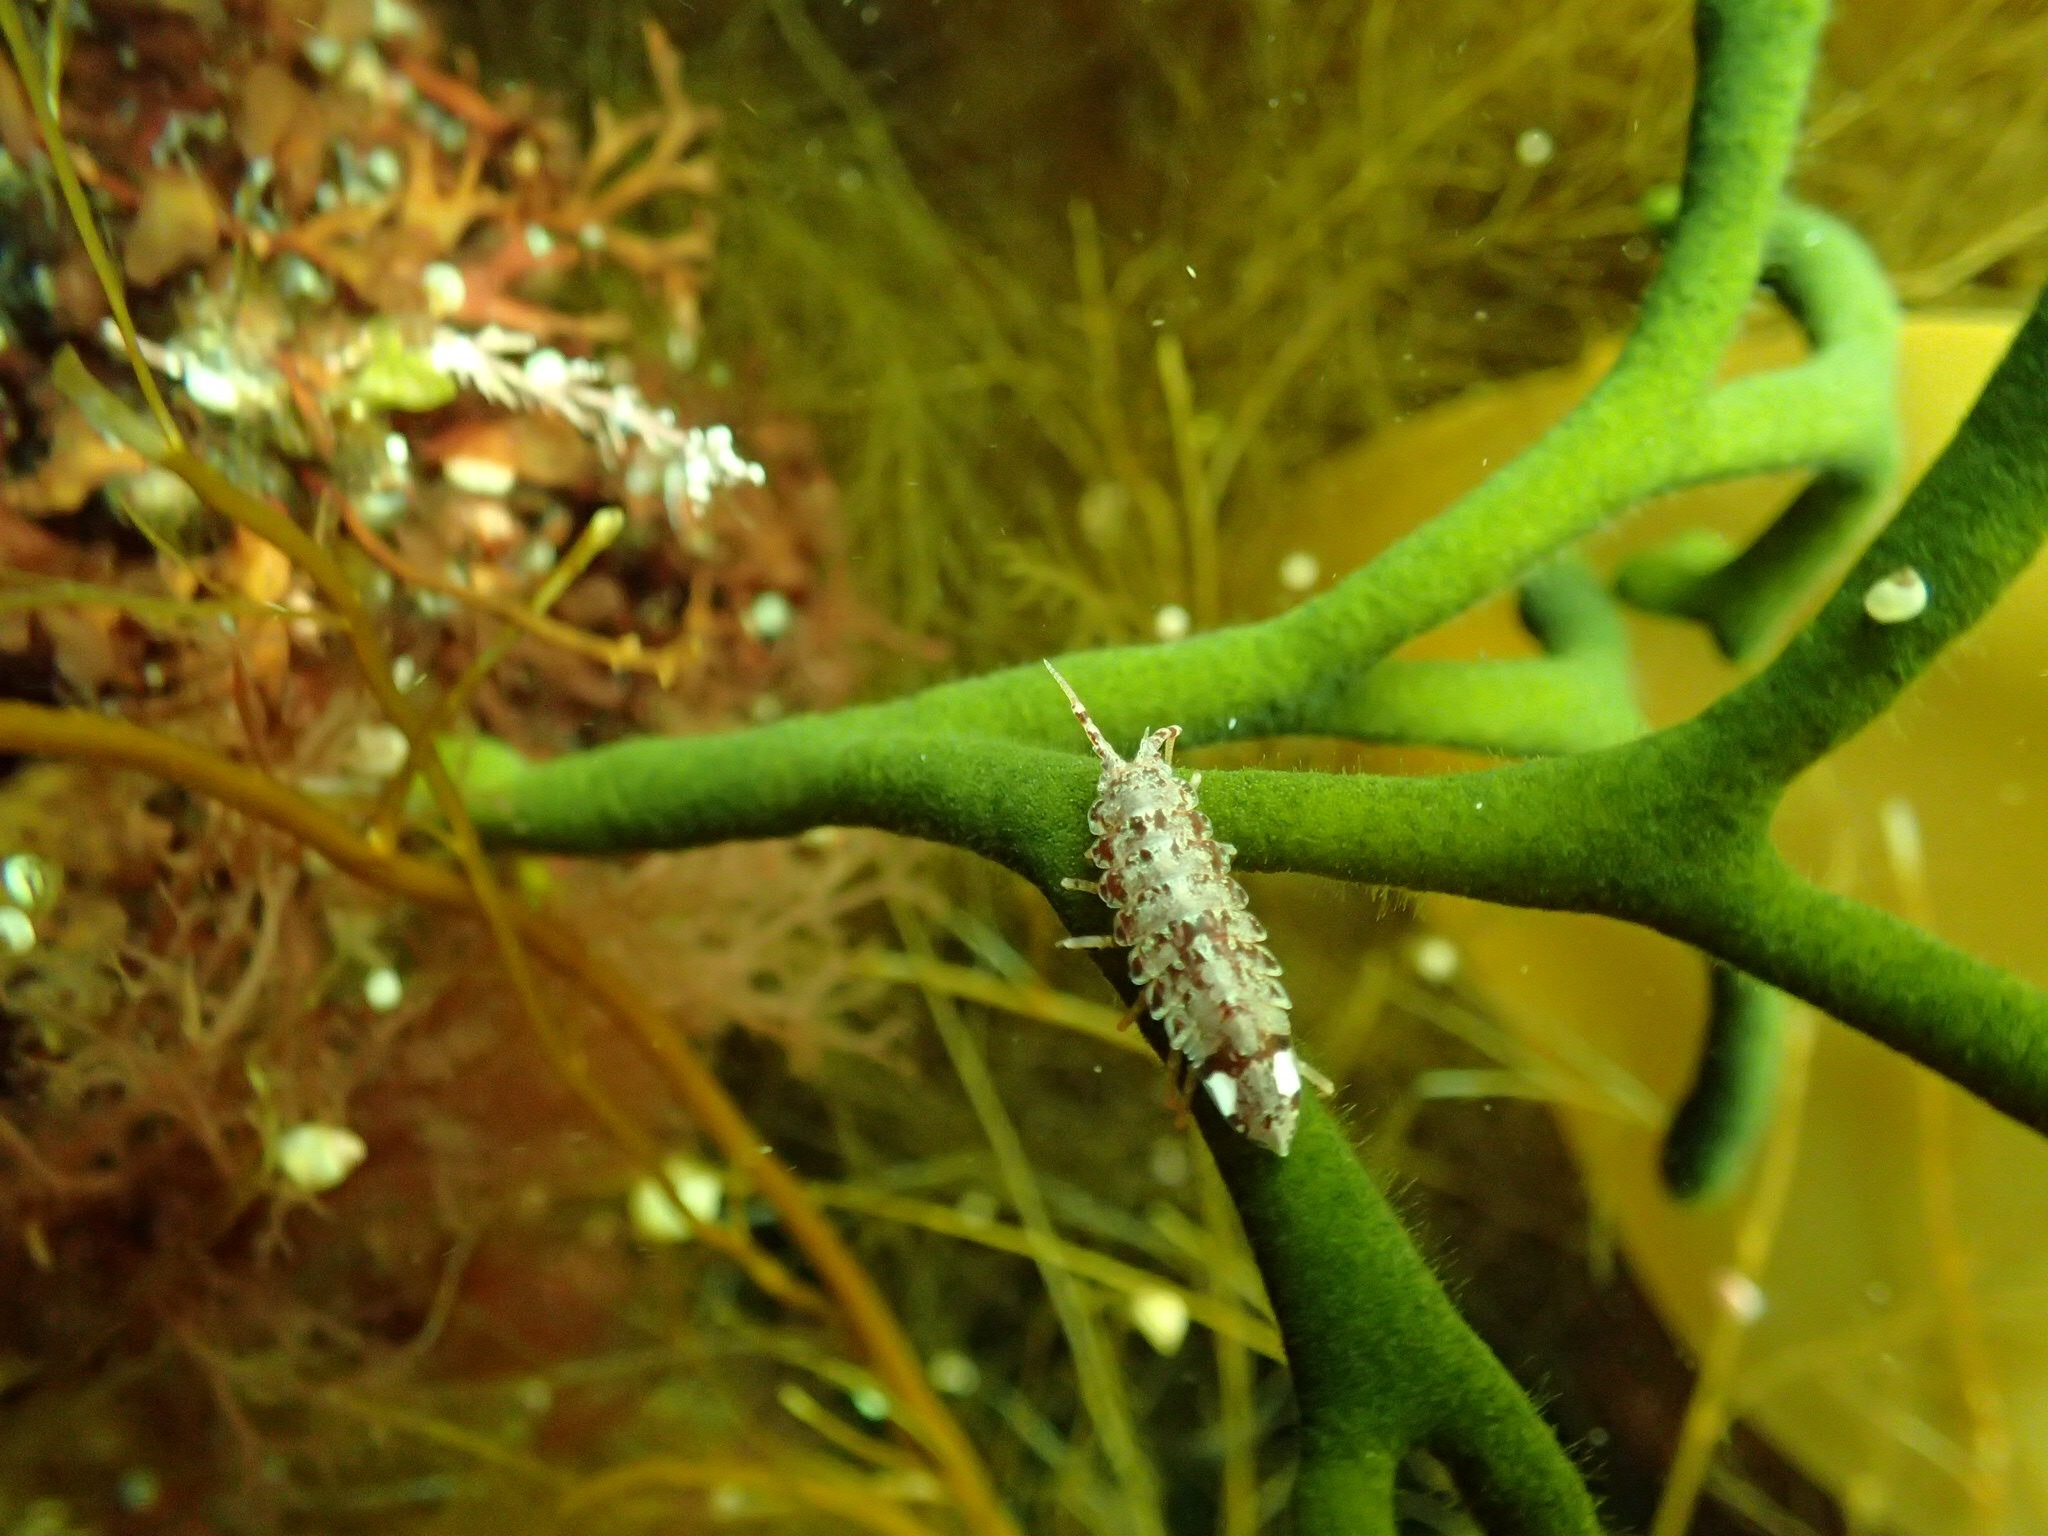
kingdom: Animalia
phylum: Arthropoda
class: Malacostraca
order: Isopoda
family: Idoteidae
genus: Idotea
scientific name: Idotea phosphorea
